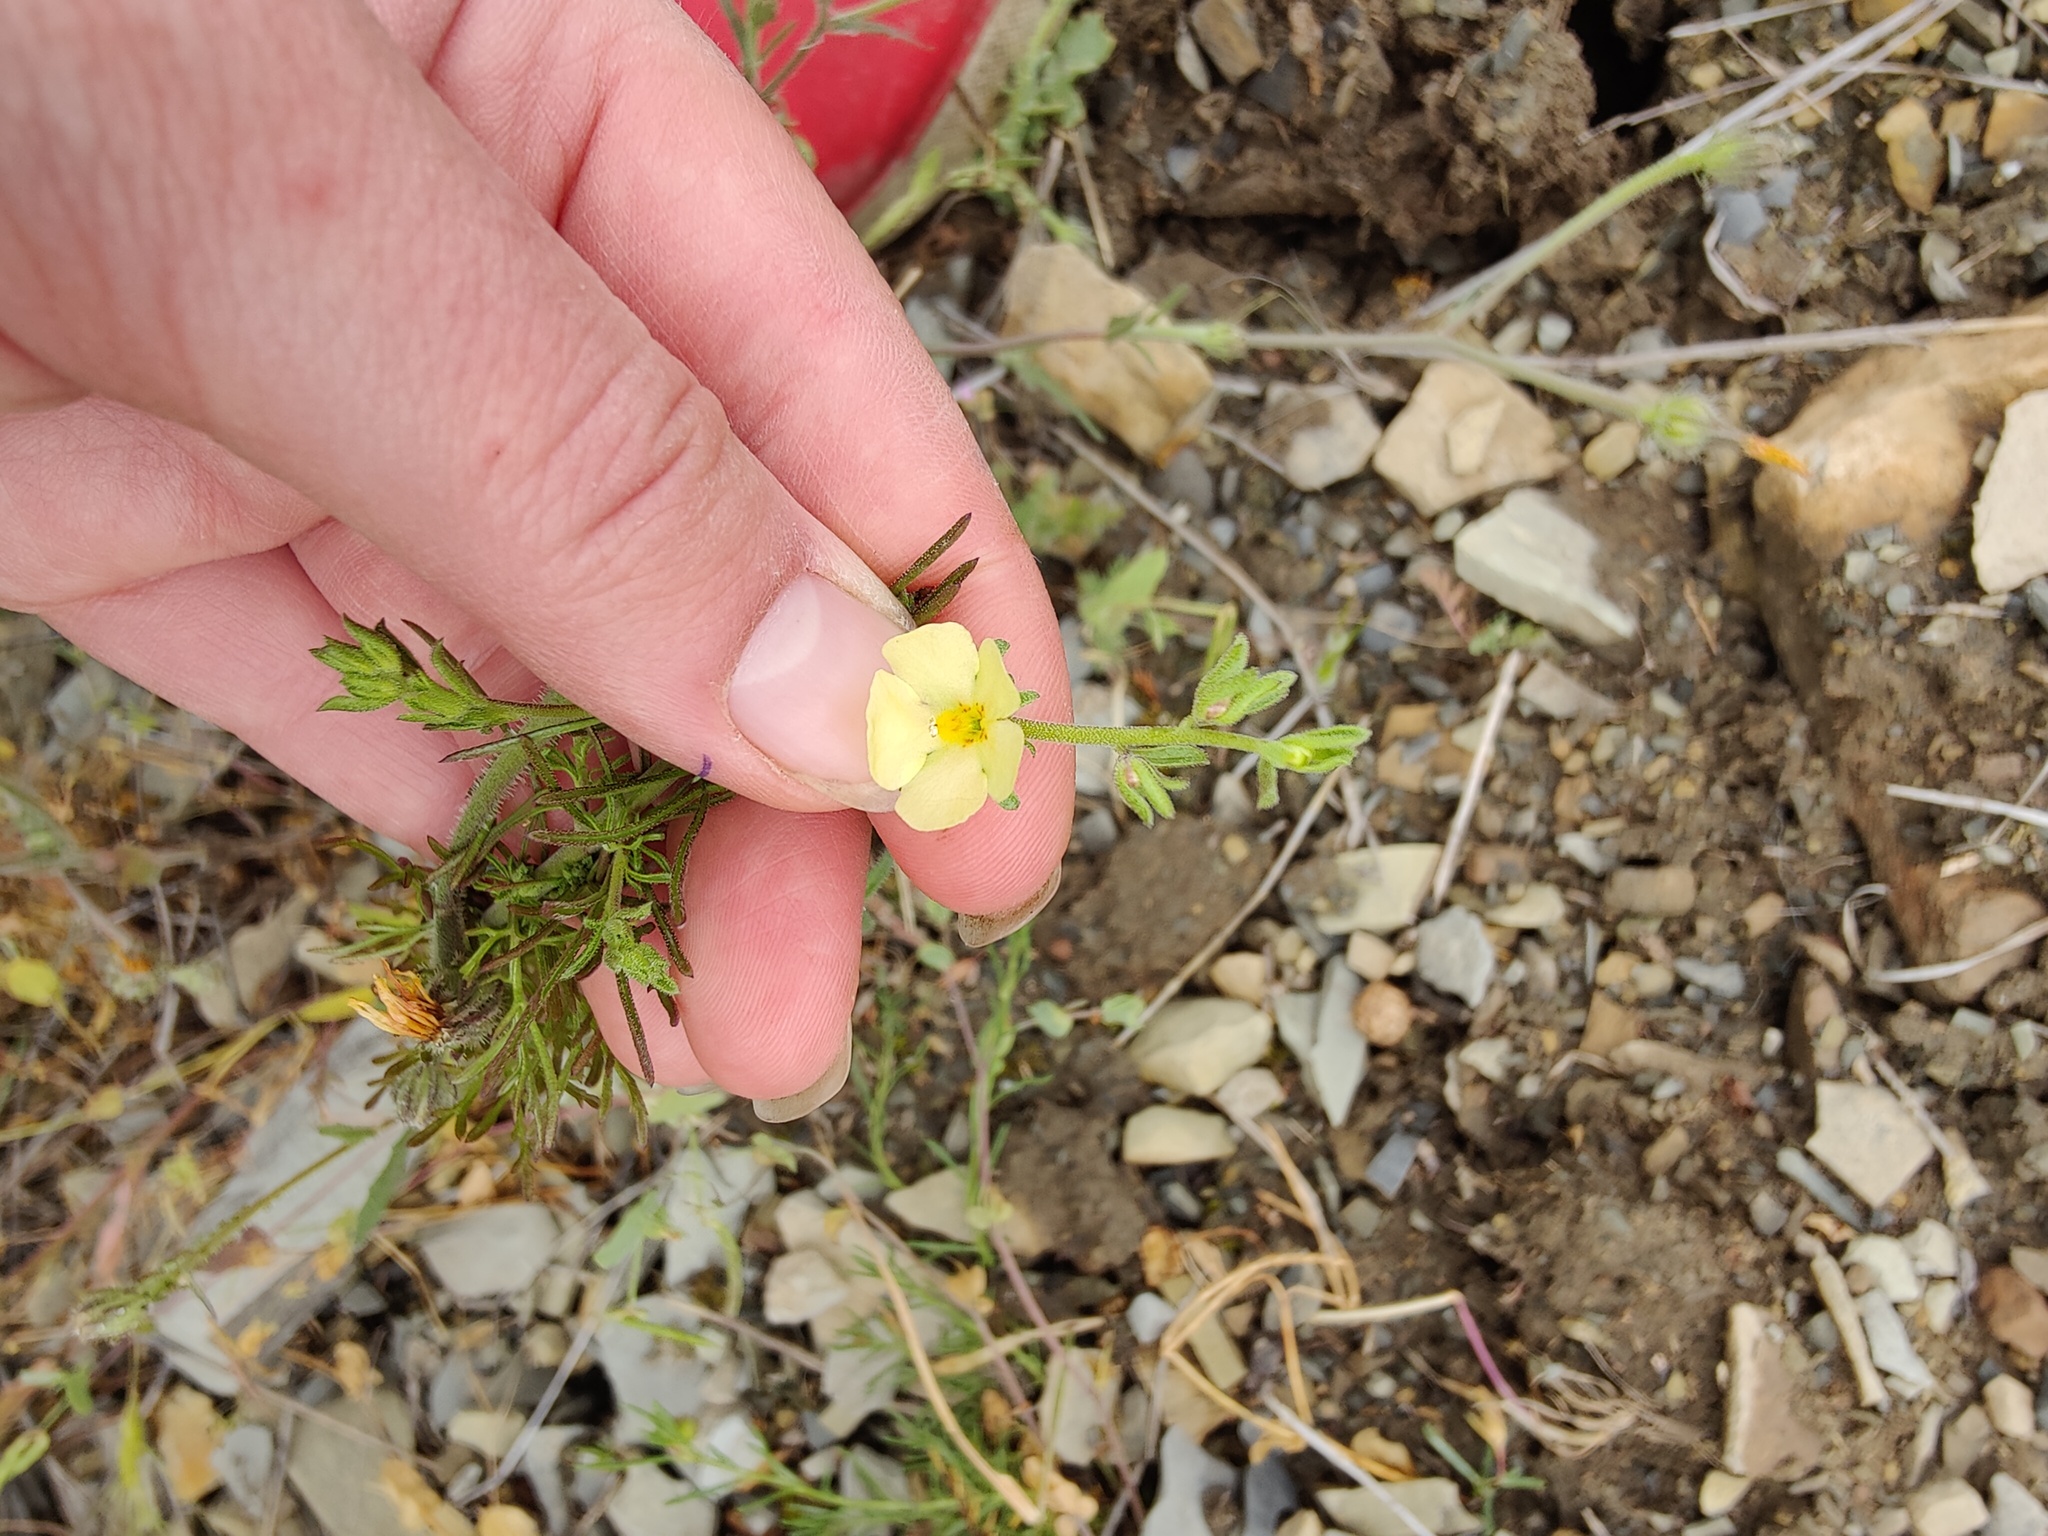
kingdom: Plantae
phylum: Tracheophyta
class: Magnoliopsida
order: Lamiales
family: Scrophulariaceae
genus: Verbascum
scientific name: Verbascum orientale
